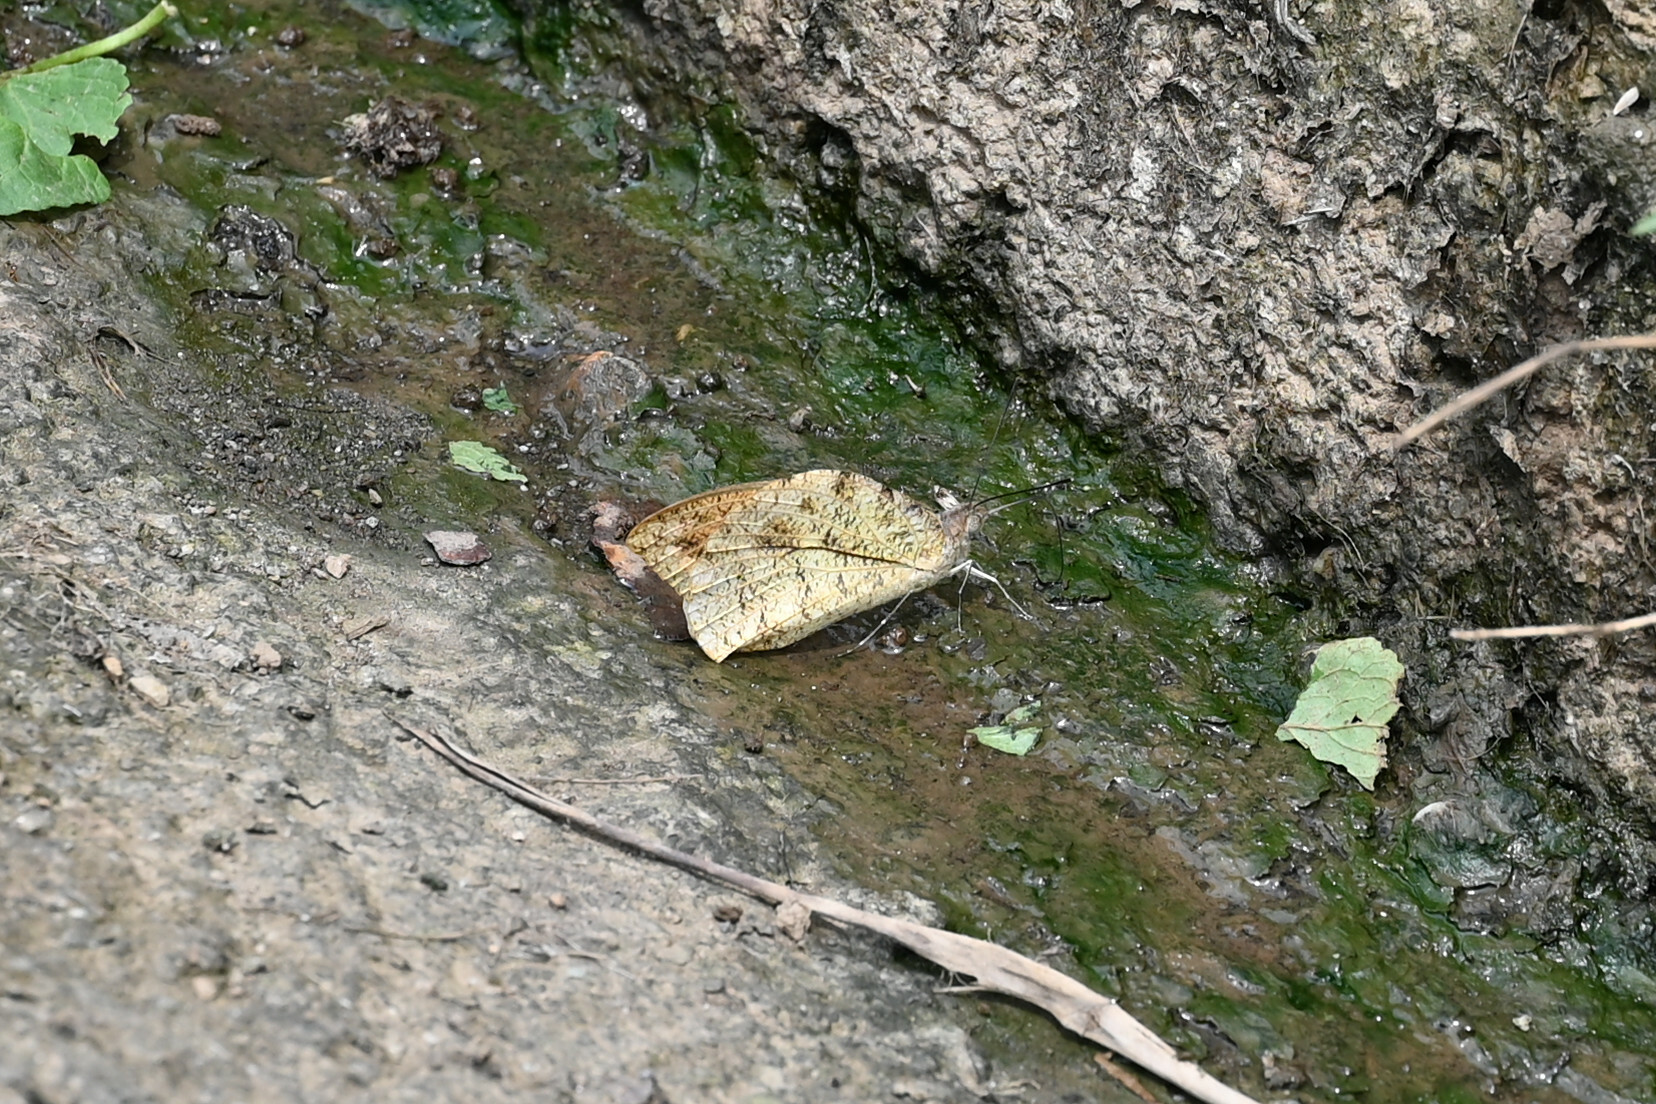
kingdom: Animalia
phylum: Arthropoda
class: Insecta
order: Lepidoptera
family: Pieridae
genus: Hebomoia
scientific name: Hebomoia glaucippe
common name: Great orange tip
